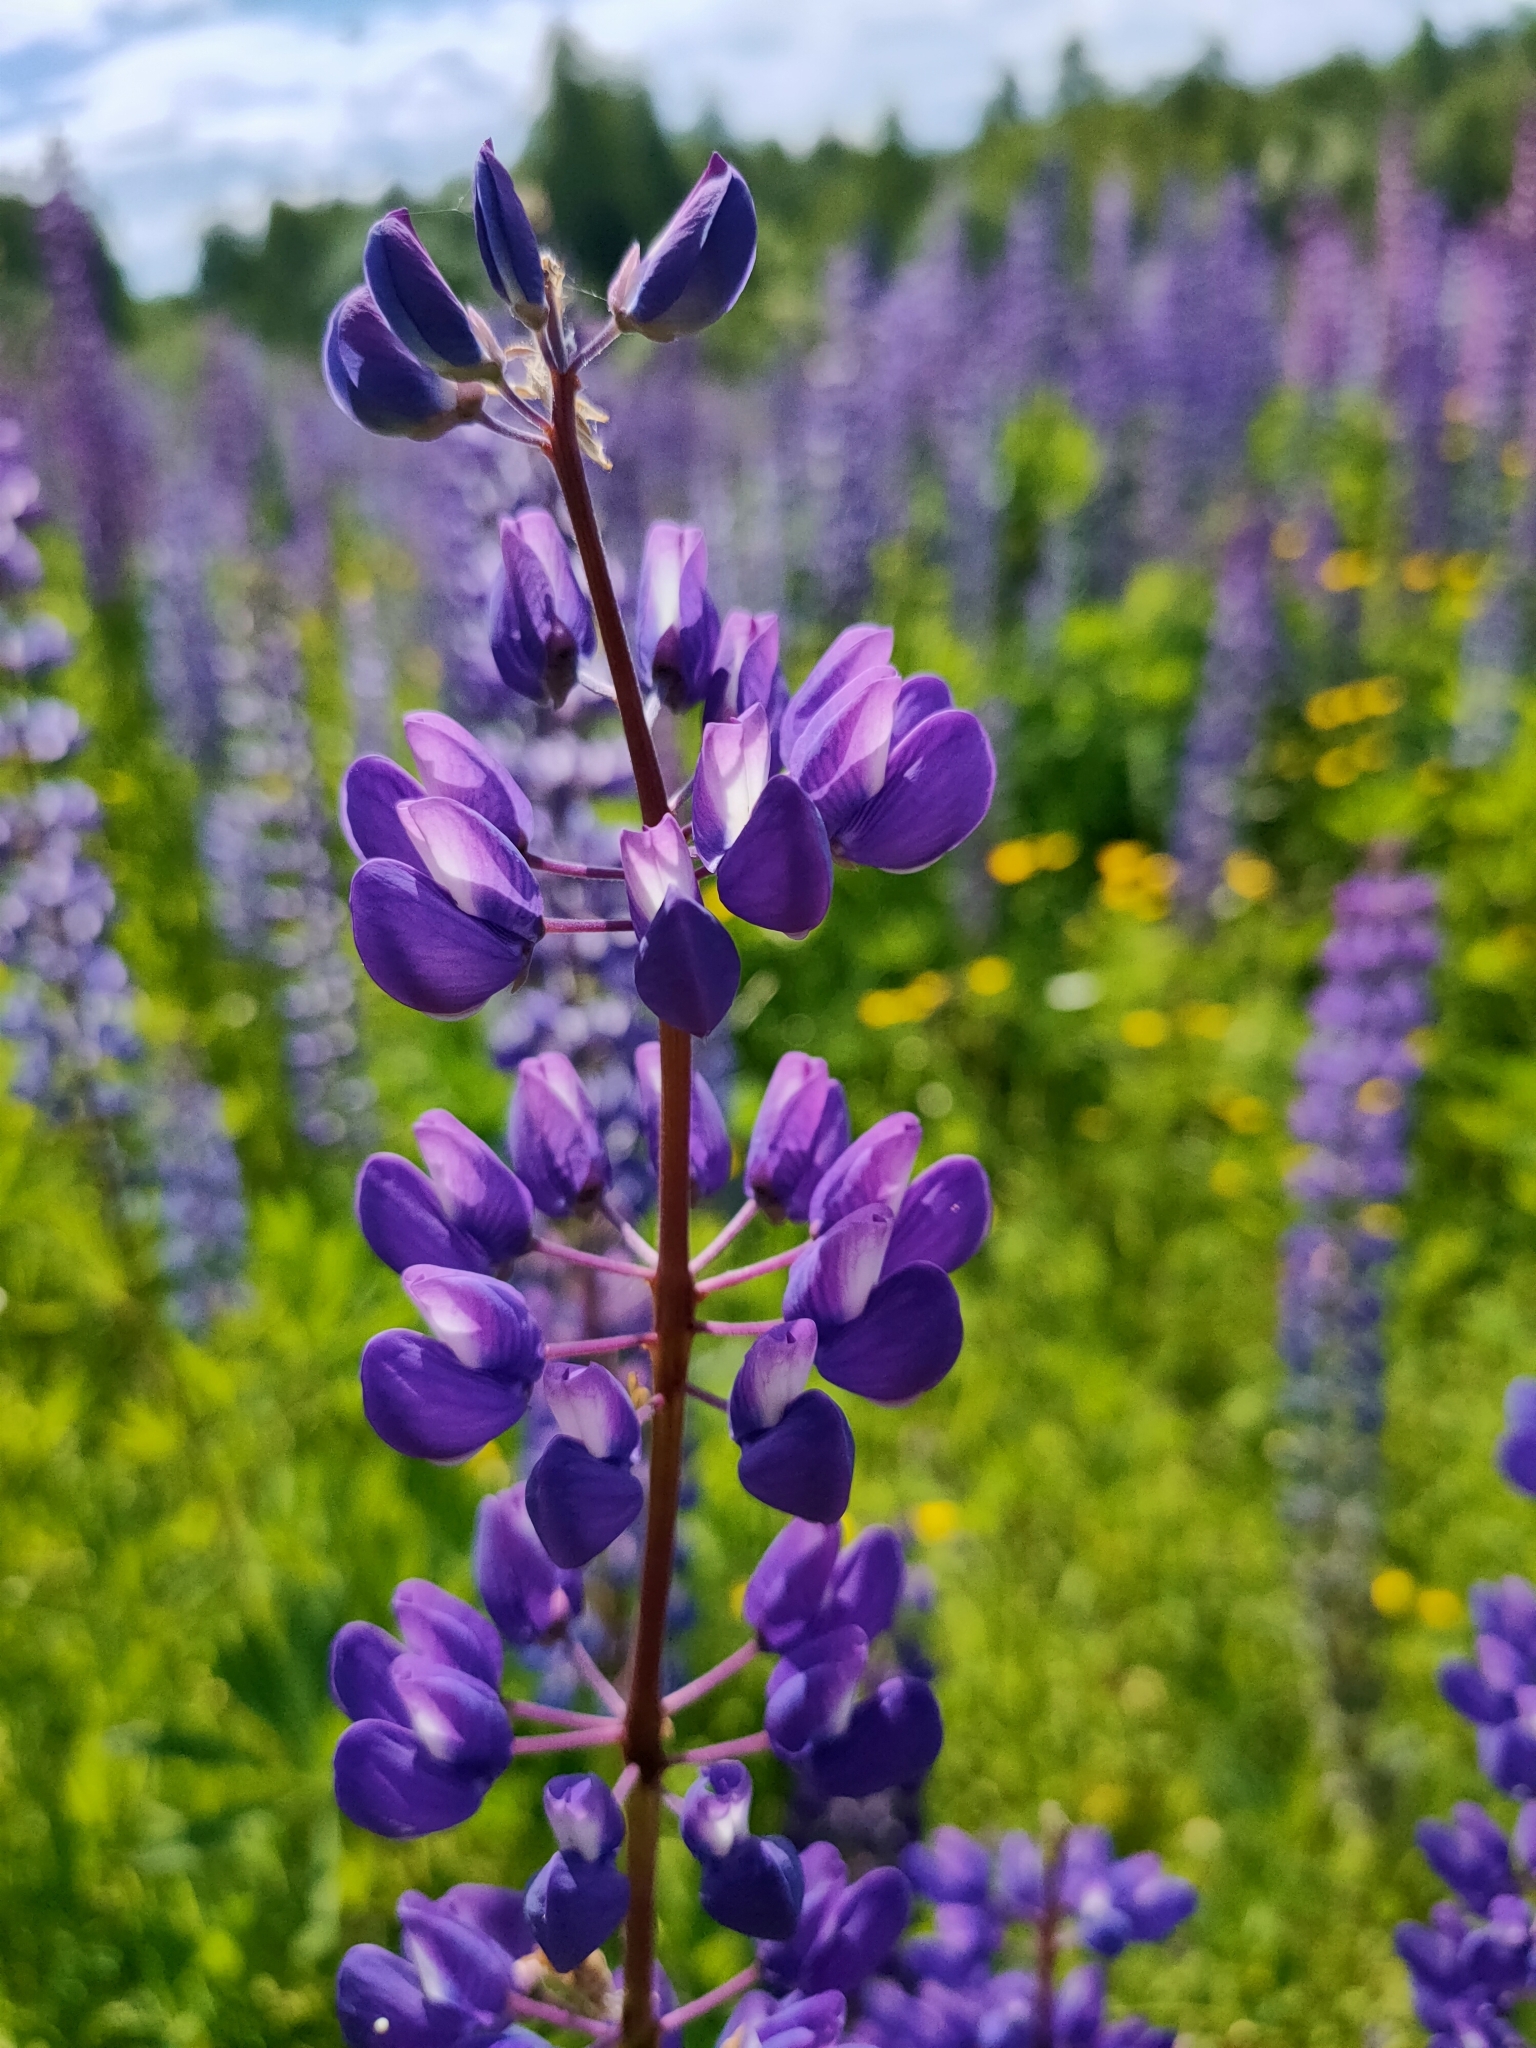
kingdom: Plantae
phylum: Tracheophyta
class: Magnoliopsida
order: Fabales
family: Fabaceae
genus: Lupinus
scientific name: Lupinus polyphyllus
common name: Garden lupin
